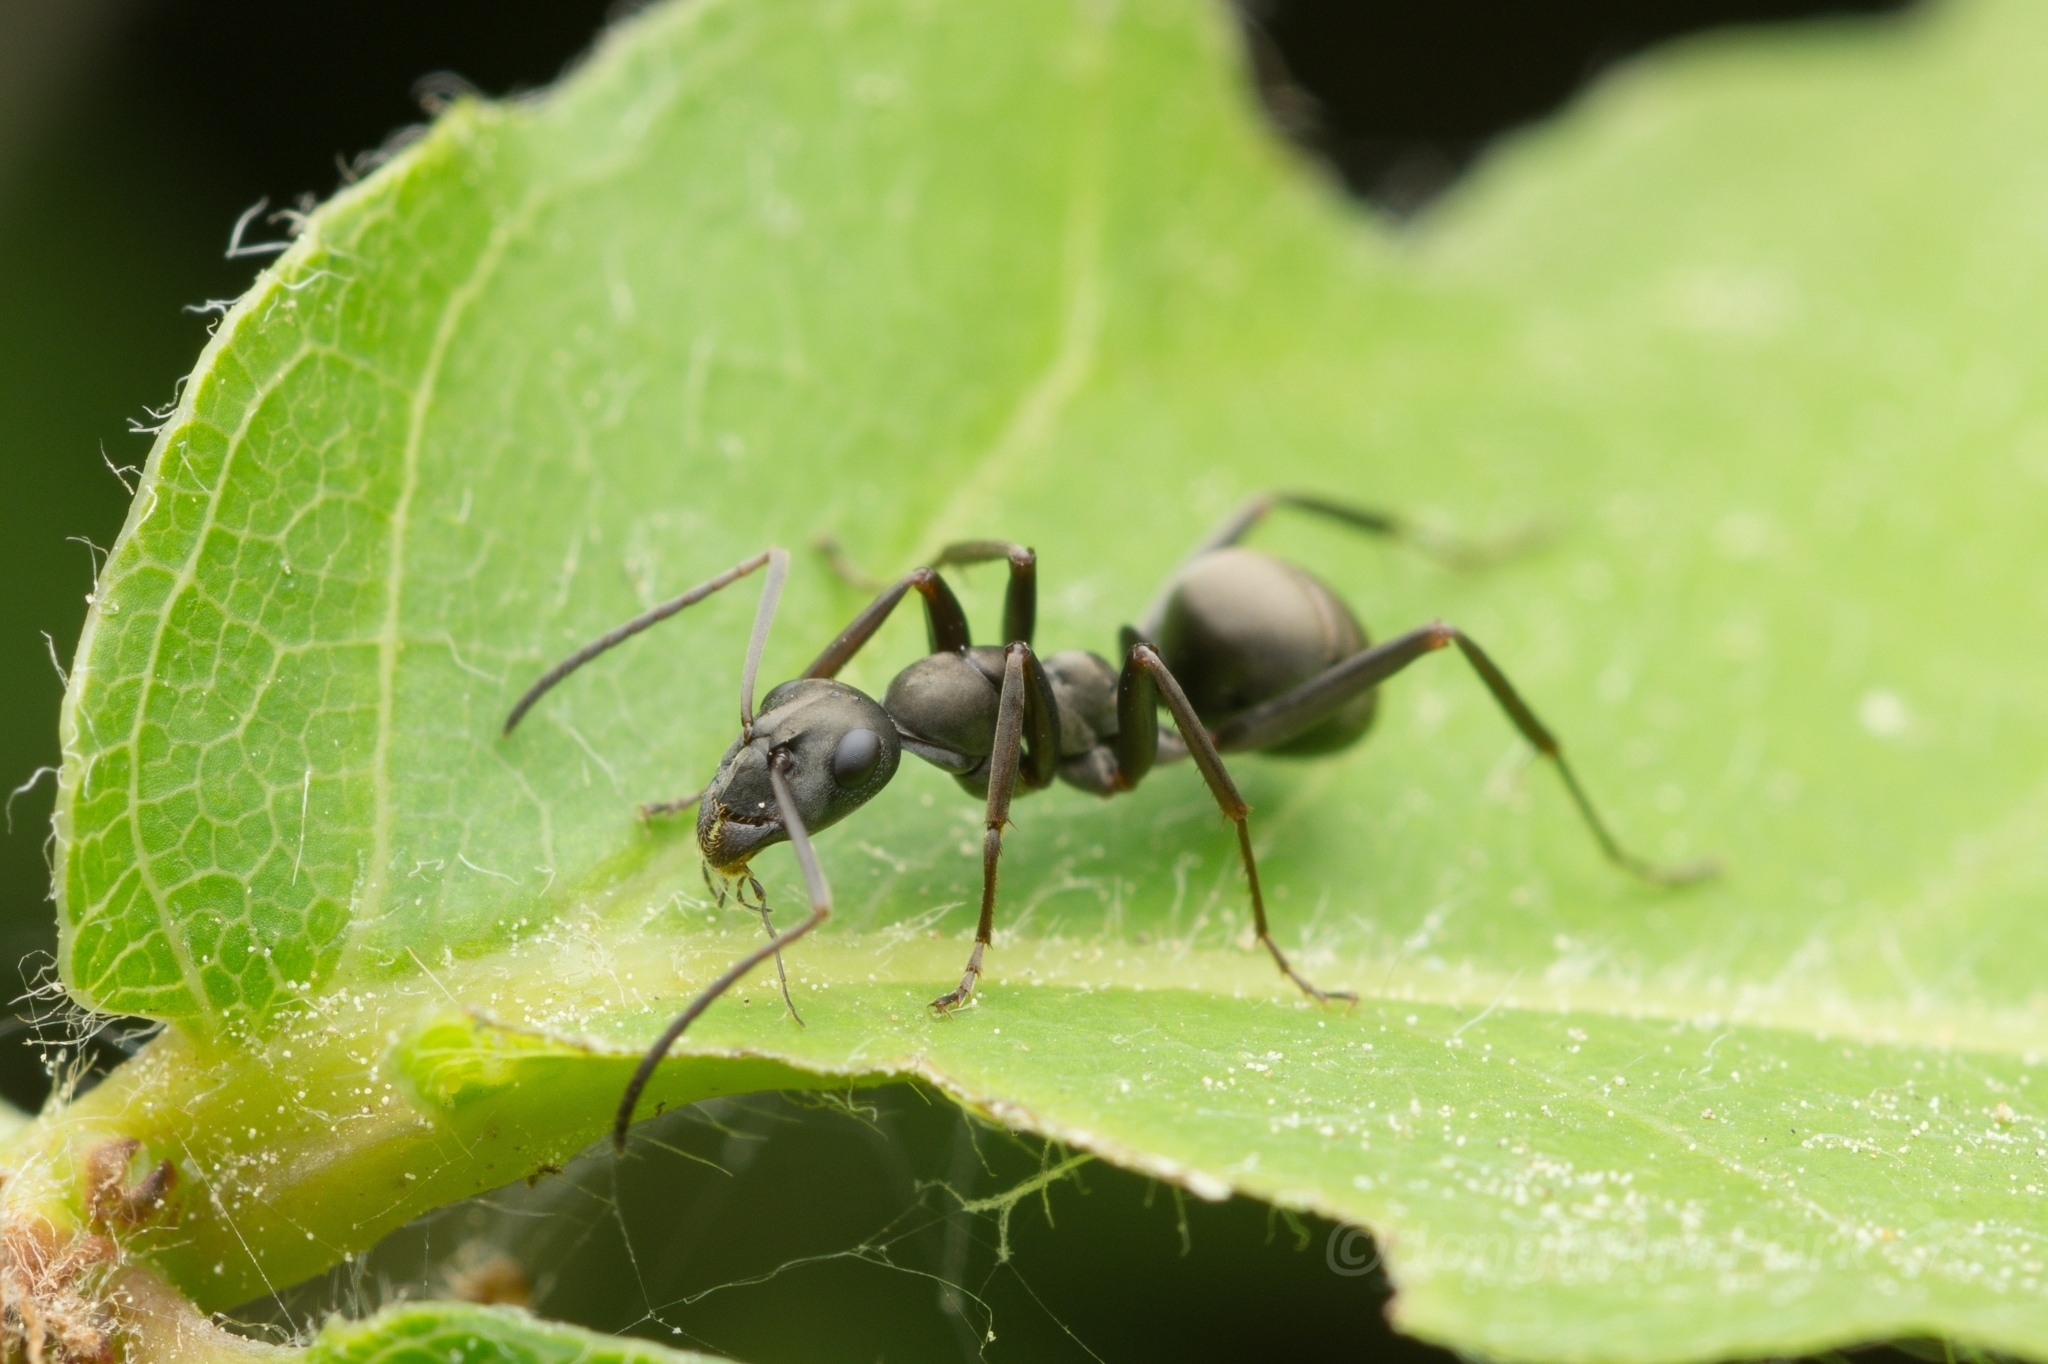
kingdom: Animalia
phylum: Arthropoda
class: Insecta
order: Hymenoptera
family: Formicidae
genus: Formica
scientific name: Formica hayashi
